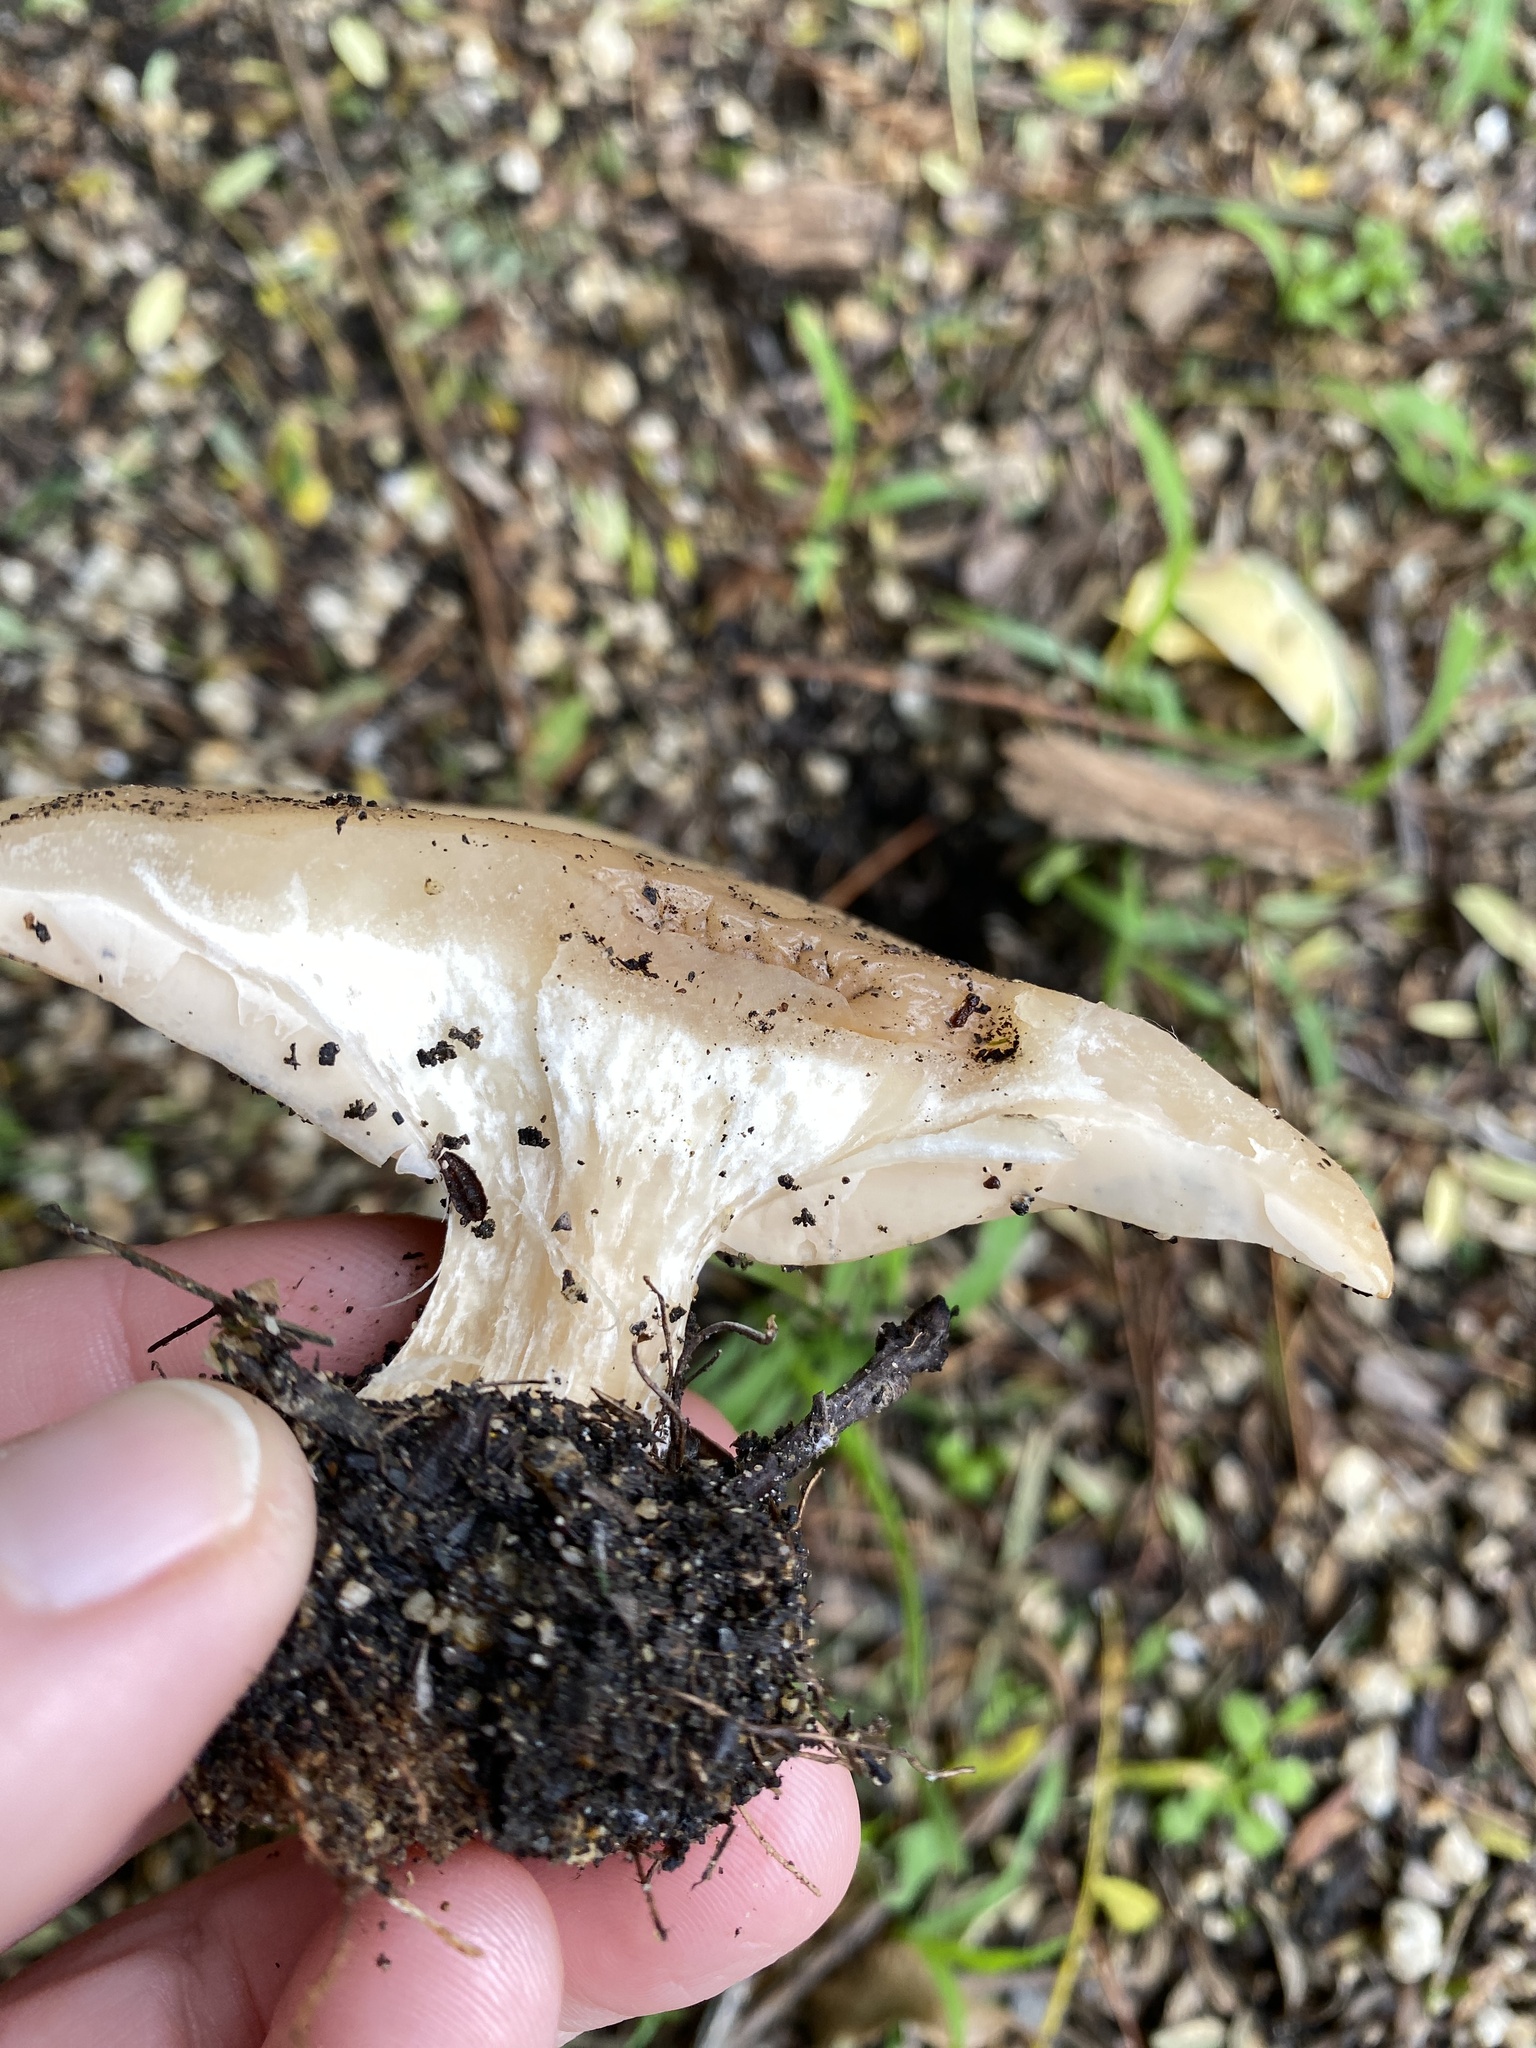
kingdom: Fungi
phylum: Basidiomycota
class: Agaricomycetes
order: Agaricales
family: Tricholomataceae
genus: Collybia
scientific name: Collybia
